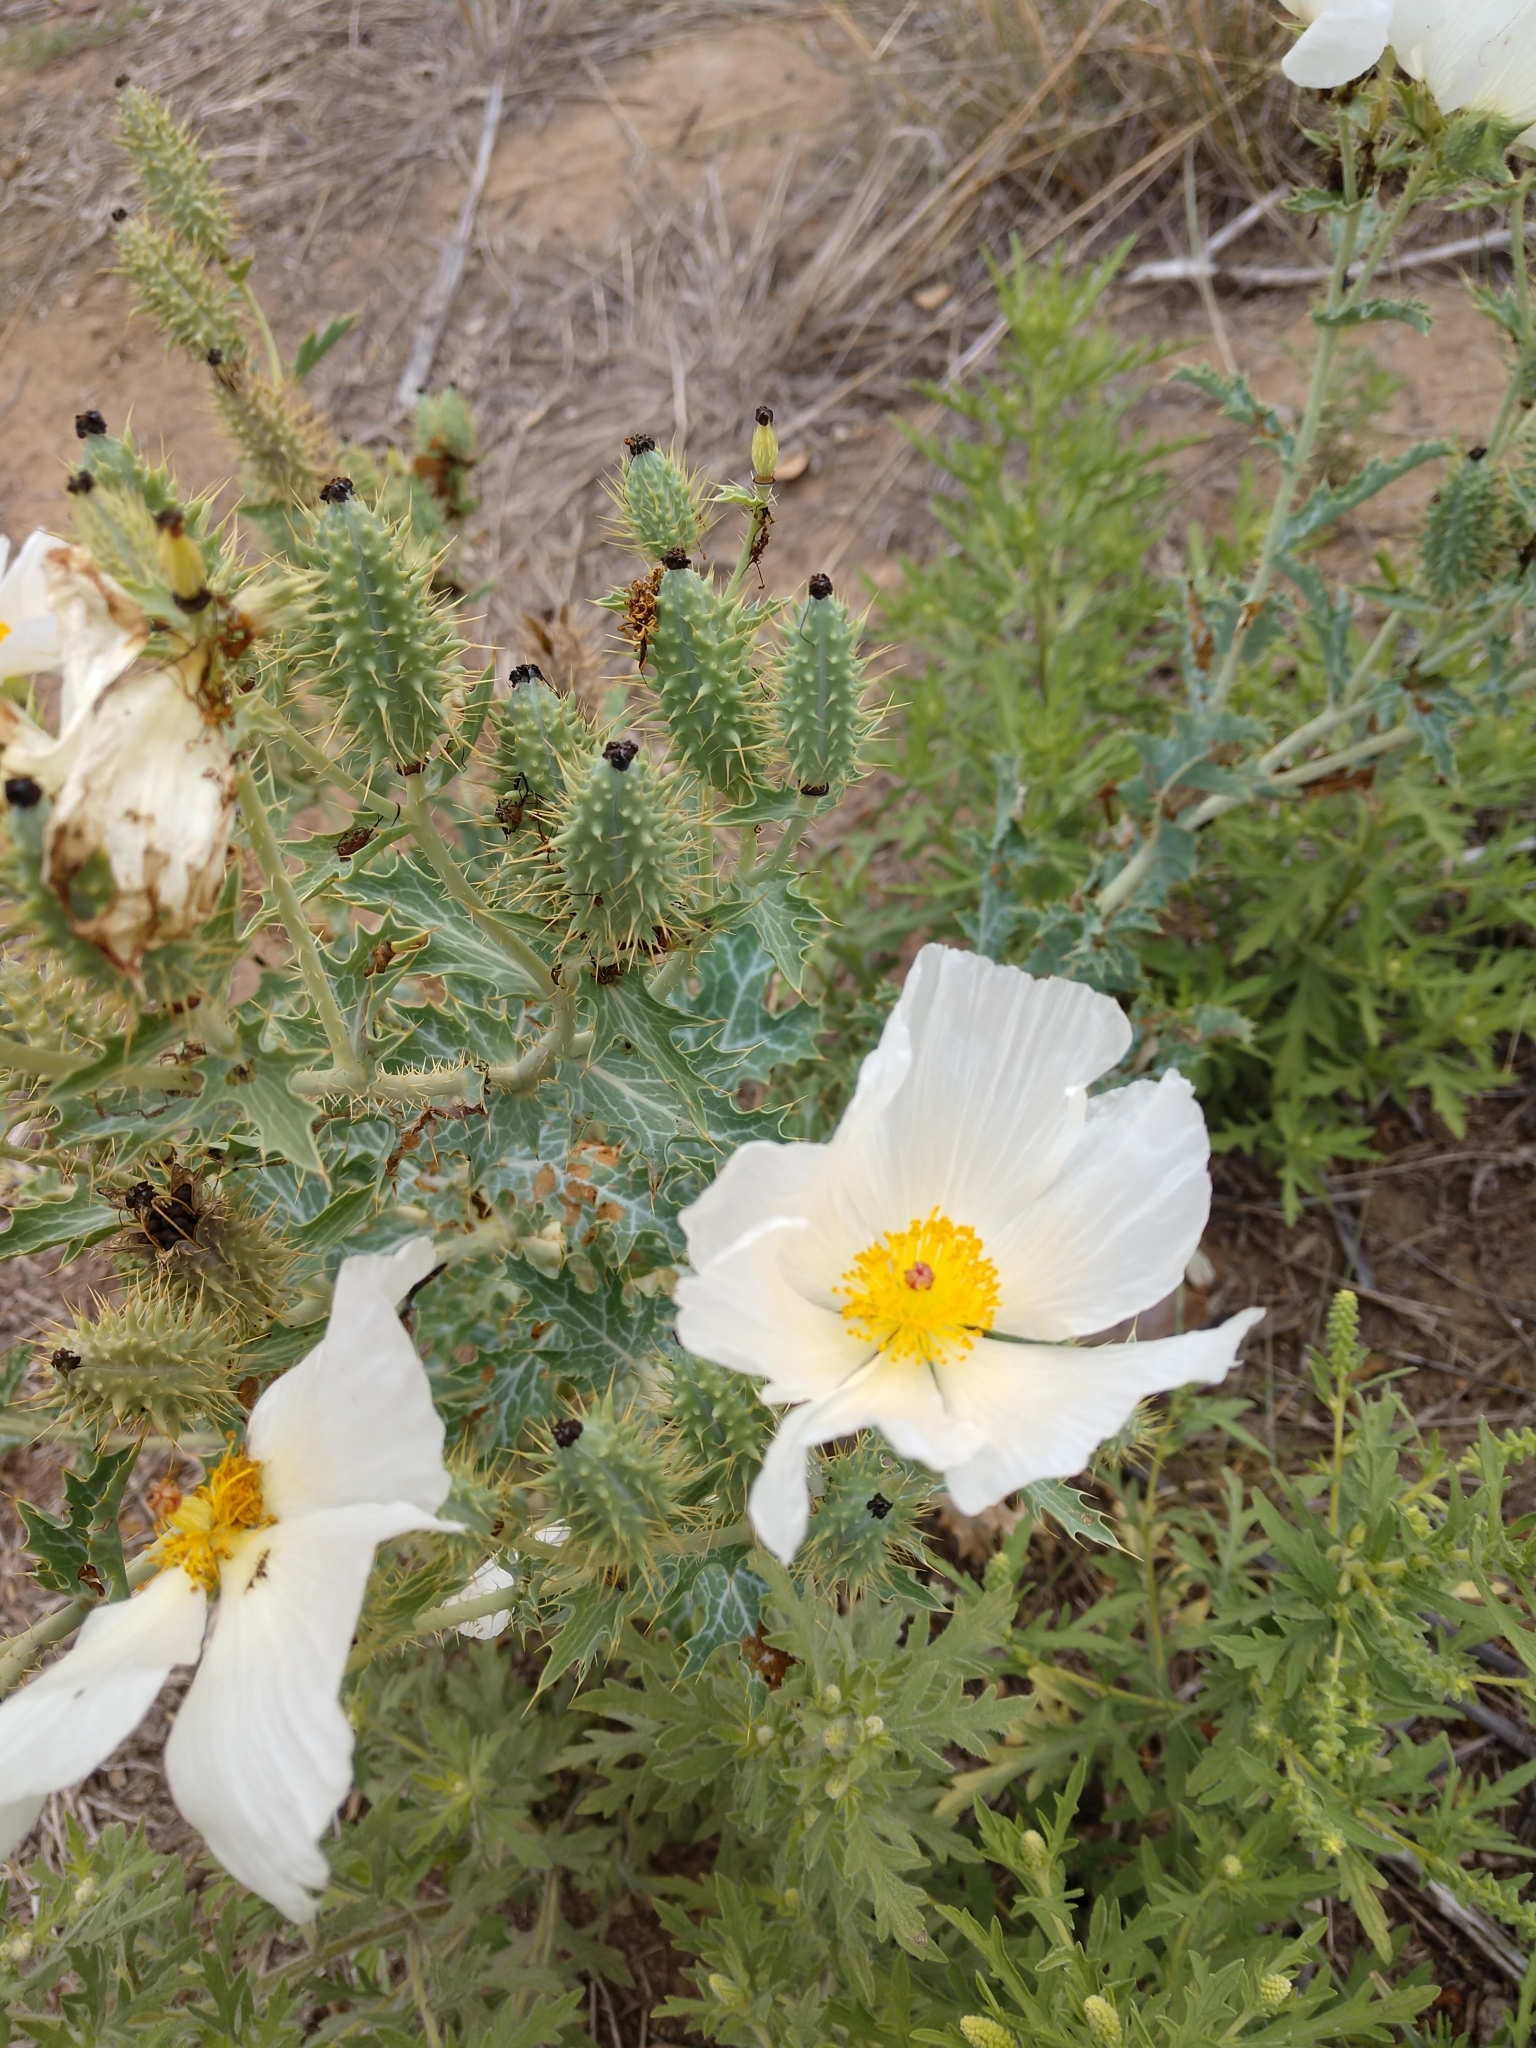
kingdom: Plantae
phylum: Tracheophyta
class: Magnoliopsida
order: Ranunculales
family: Papaveraceae
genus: Argemone
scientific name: Argemone polyanthemos
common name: Plains prickly-poppy
